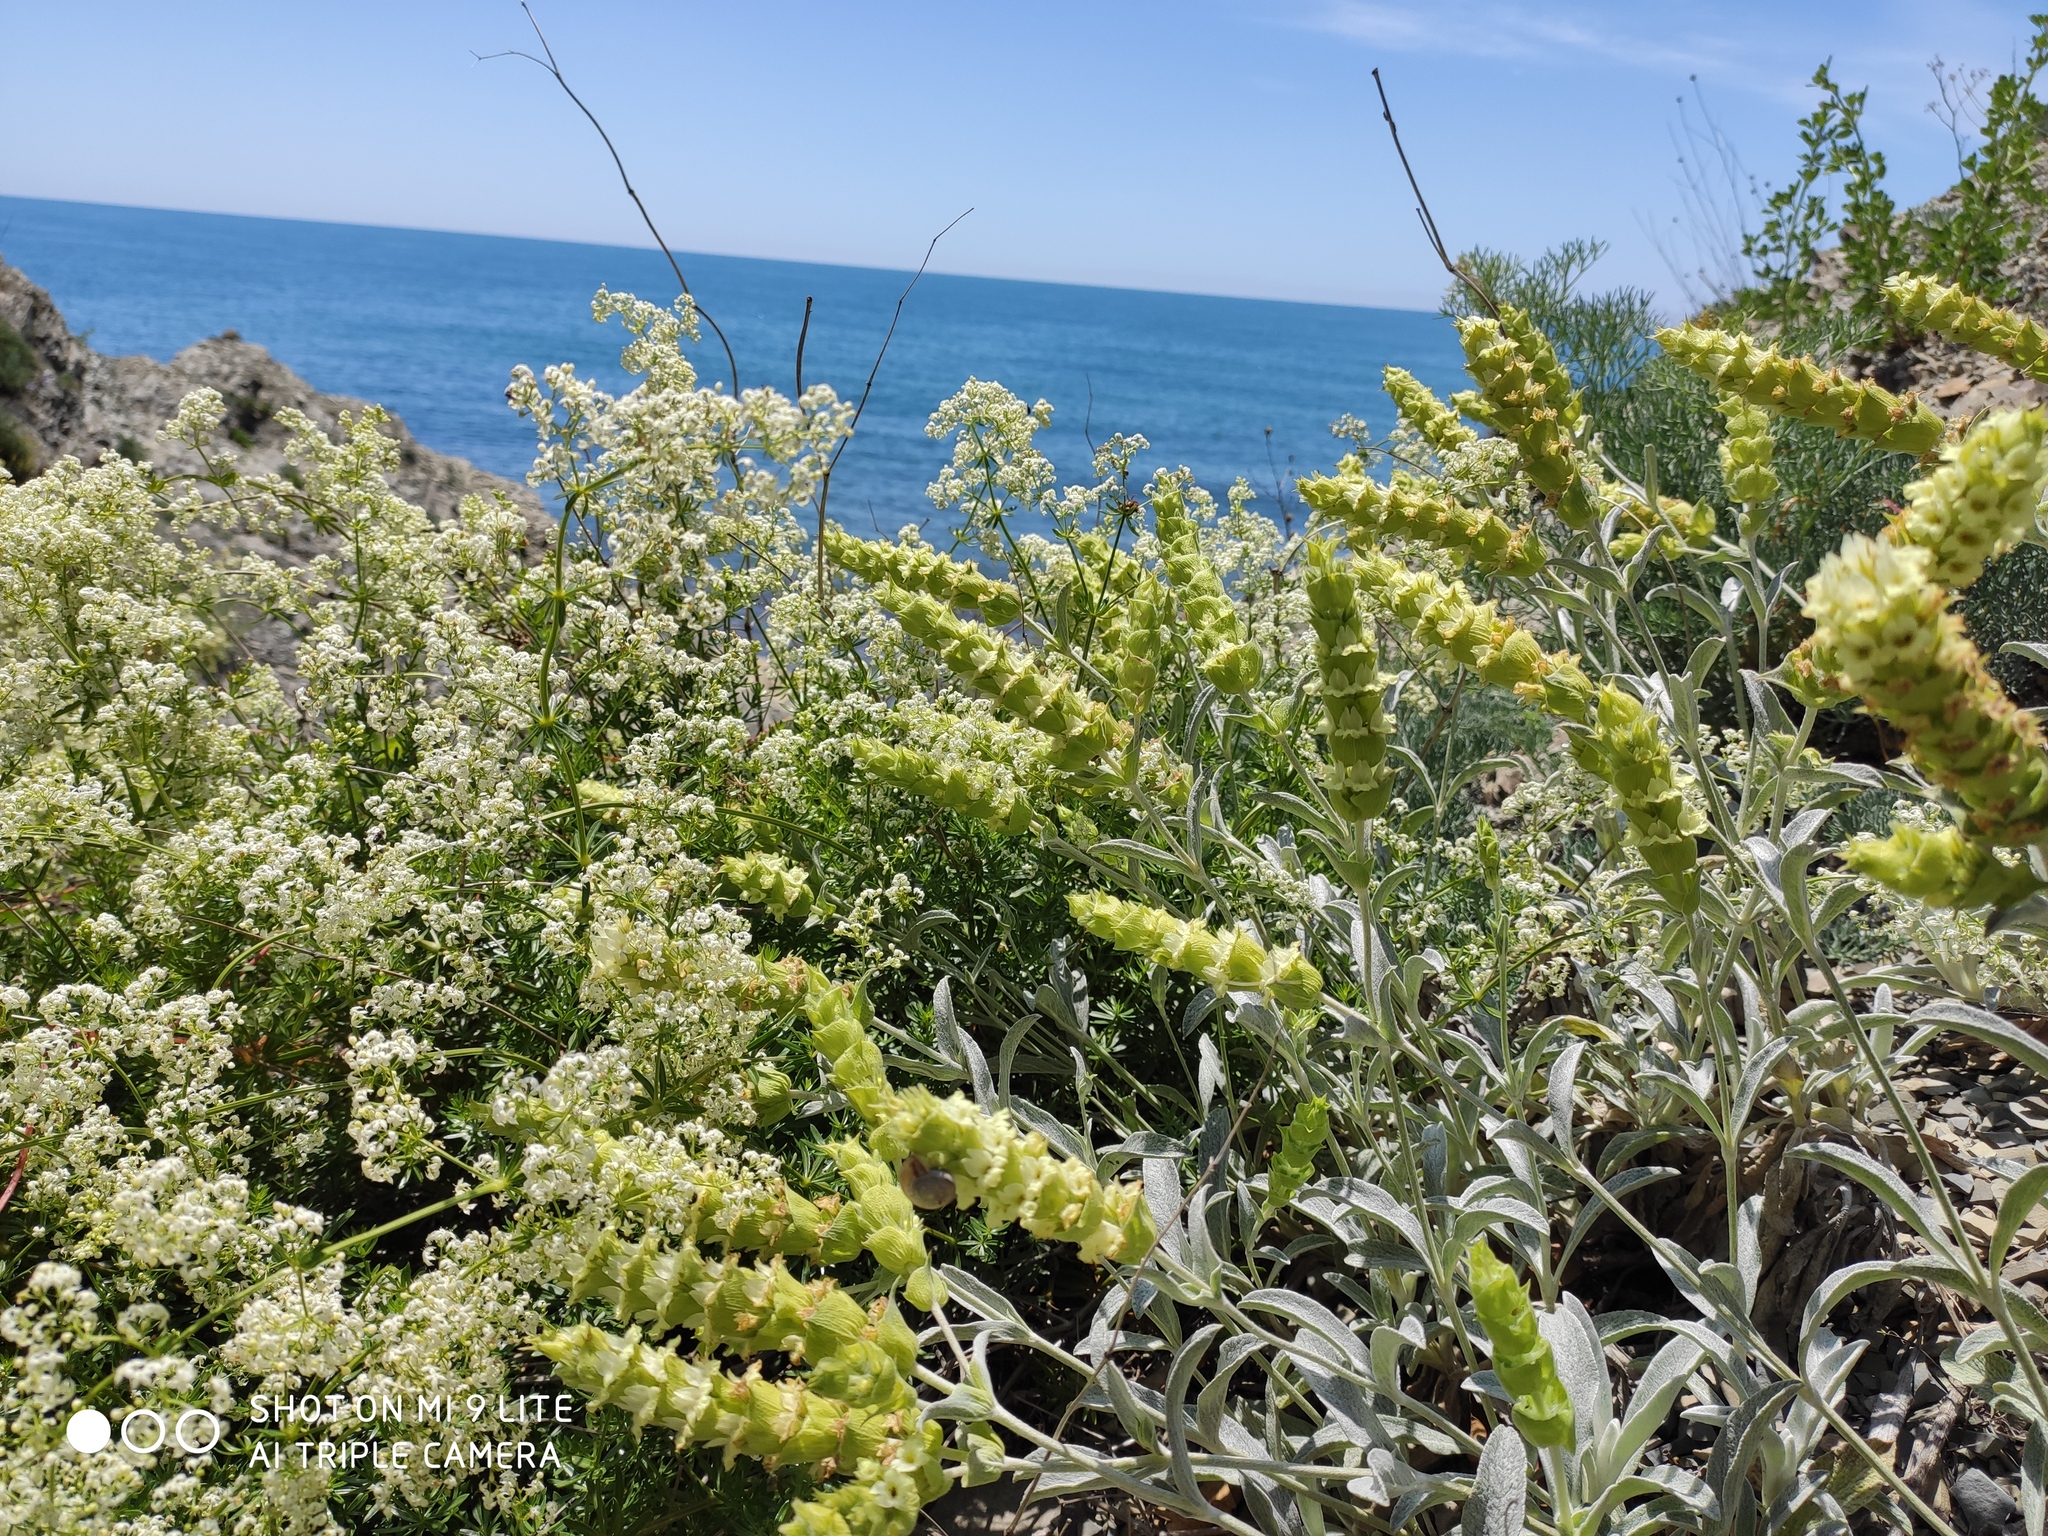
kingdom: Plantae
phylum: Tracheophyta
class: Magnoliopsida
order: Lamiales
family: Lamiaceae
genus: Sideritis
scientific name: Sideritis euxina
